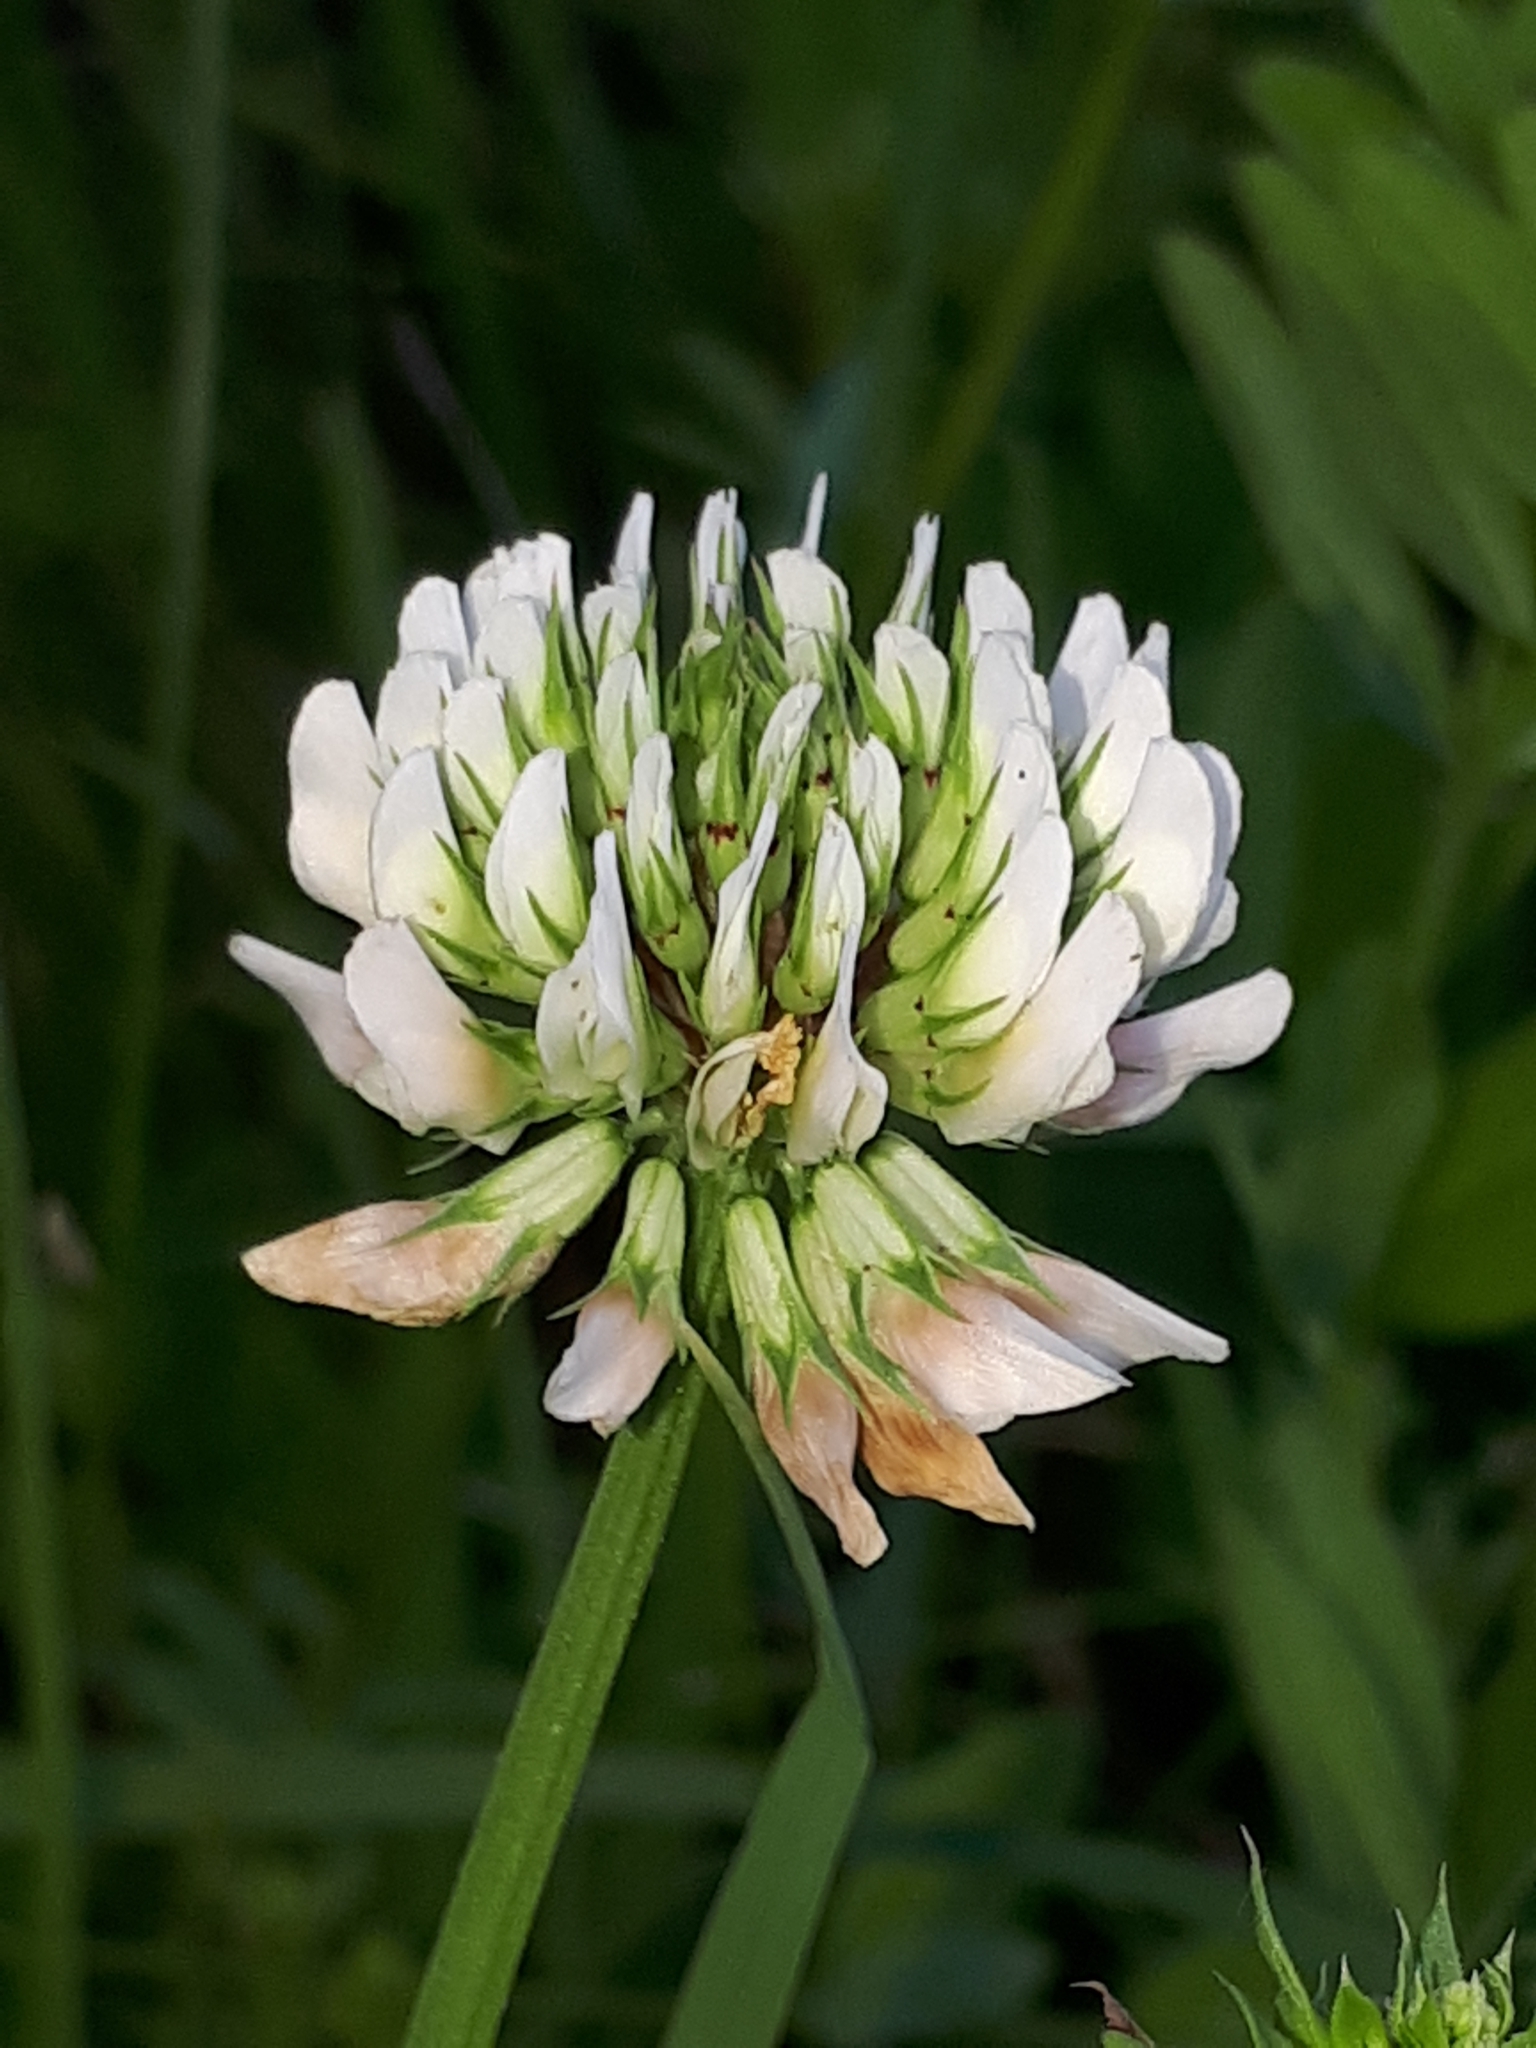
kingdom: Plantae
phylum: Tracheophyta
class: Magnoliopsida
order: Fabales
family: Fabaceae
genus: Trifolium
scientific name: Trifolium repens
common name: White clover
